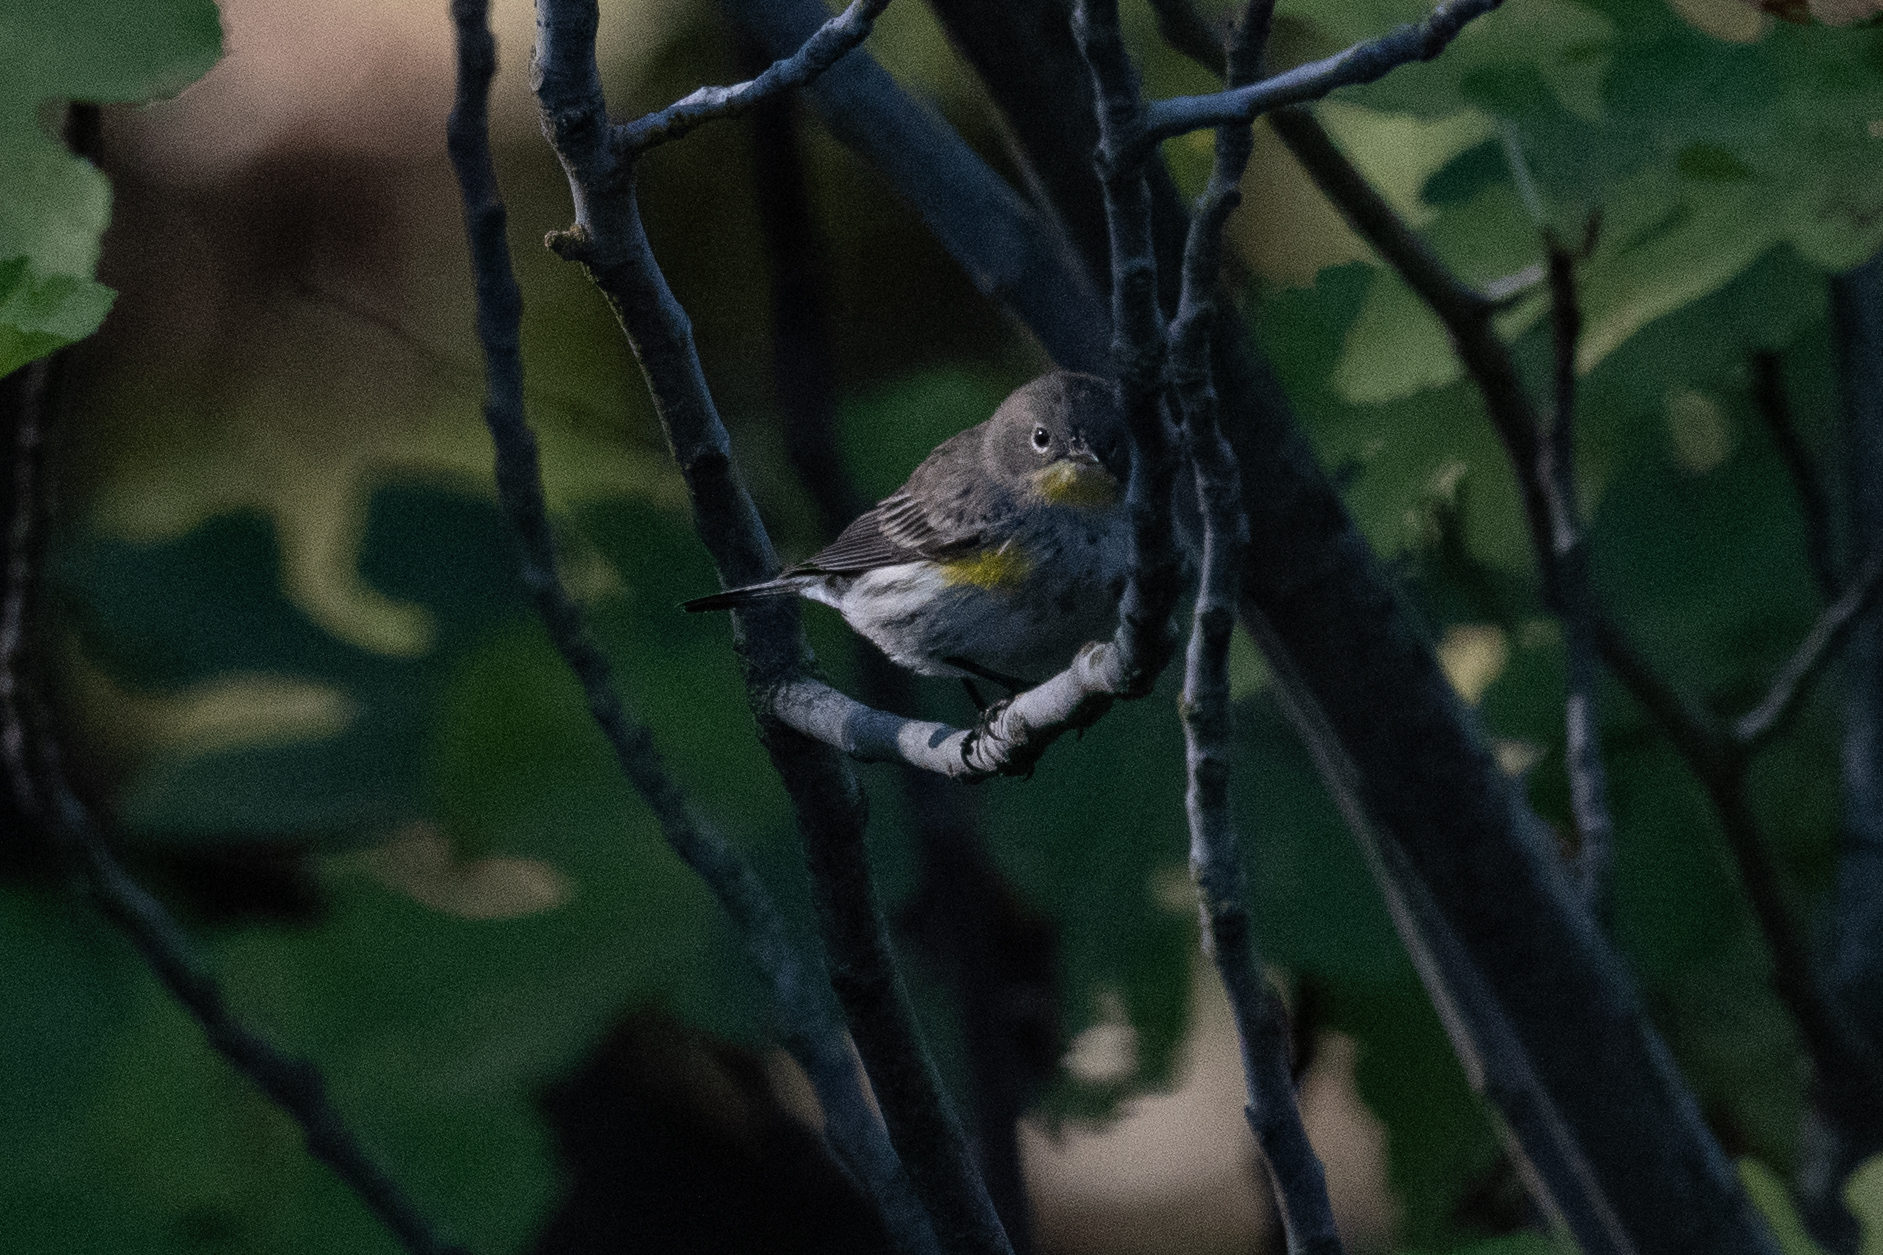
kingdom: Animalia
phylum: Chordata
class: Aves
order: Passeriformes
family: Parulidae
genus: Setophaga
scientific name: Setophaga coronata
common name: Myrtle warbler
